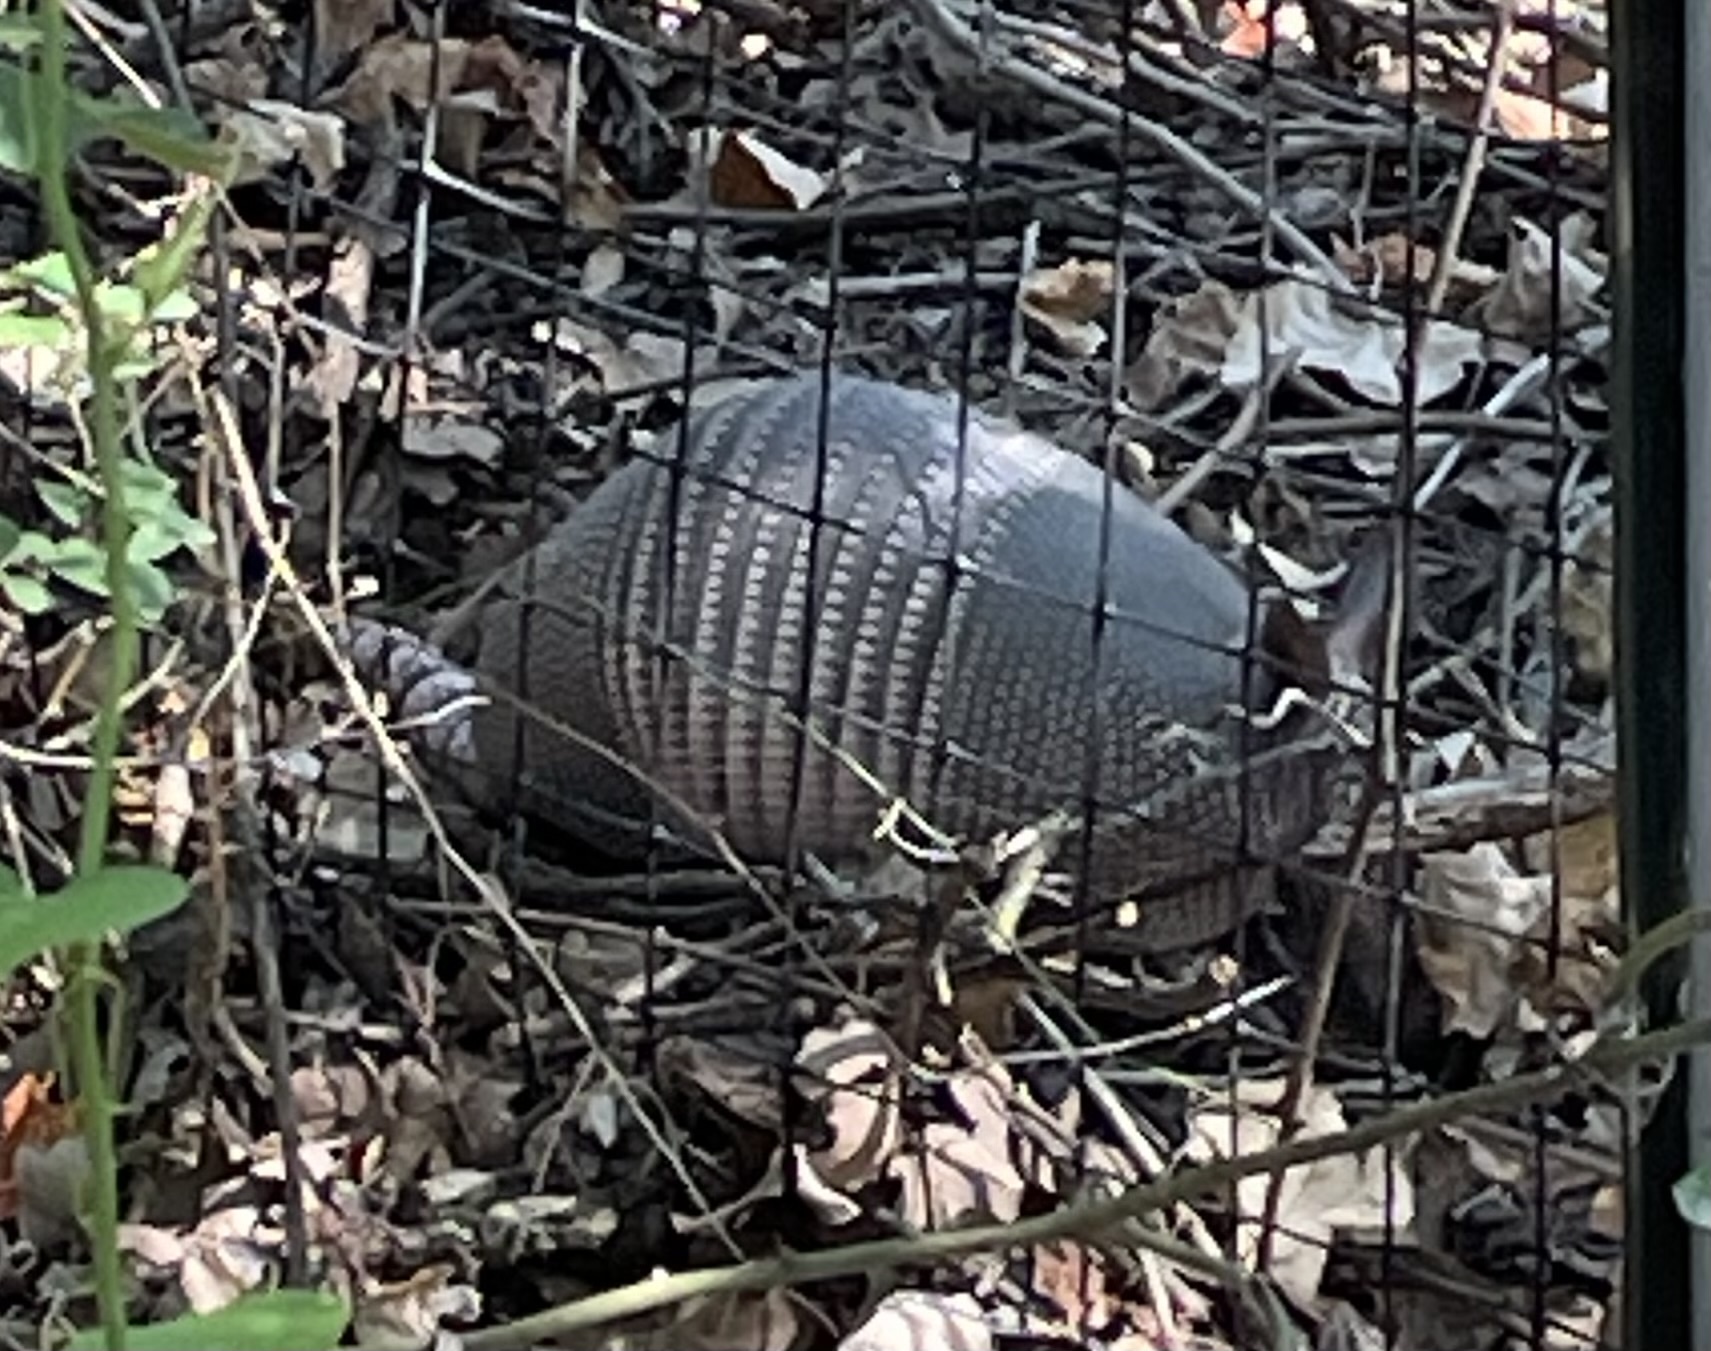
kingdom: Animalia
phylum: Chordata
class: Mammalia
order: Cingulata
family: Dasypodidae
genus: Dasypus
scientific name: Dasypus novemcinctus
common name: Nine-banded armadillo
